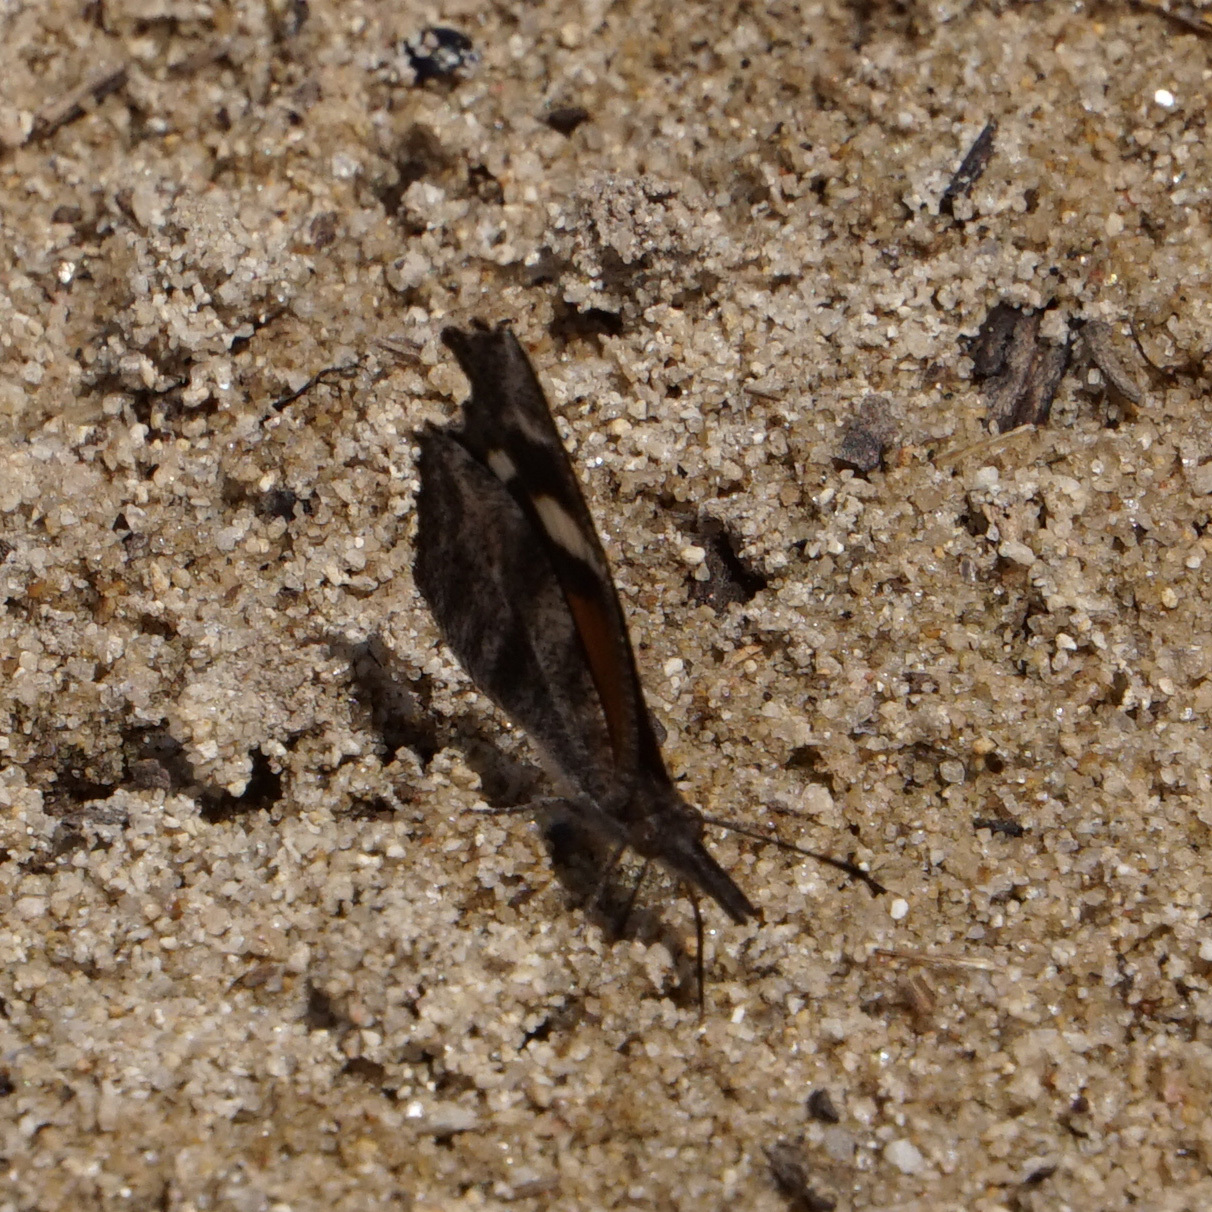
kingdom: Animalia
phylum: Arthropoda
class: Insecta
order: Lepidoptera
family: Nymphalidae
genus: Libytheana
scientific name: Libytheana carinenta
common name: American snout
